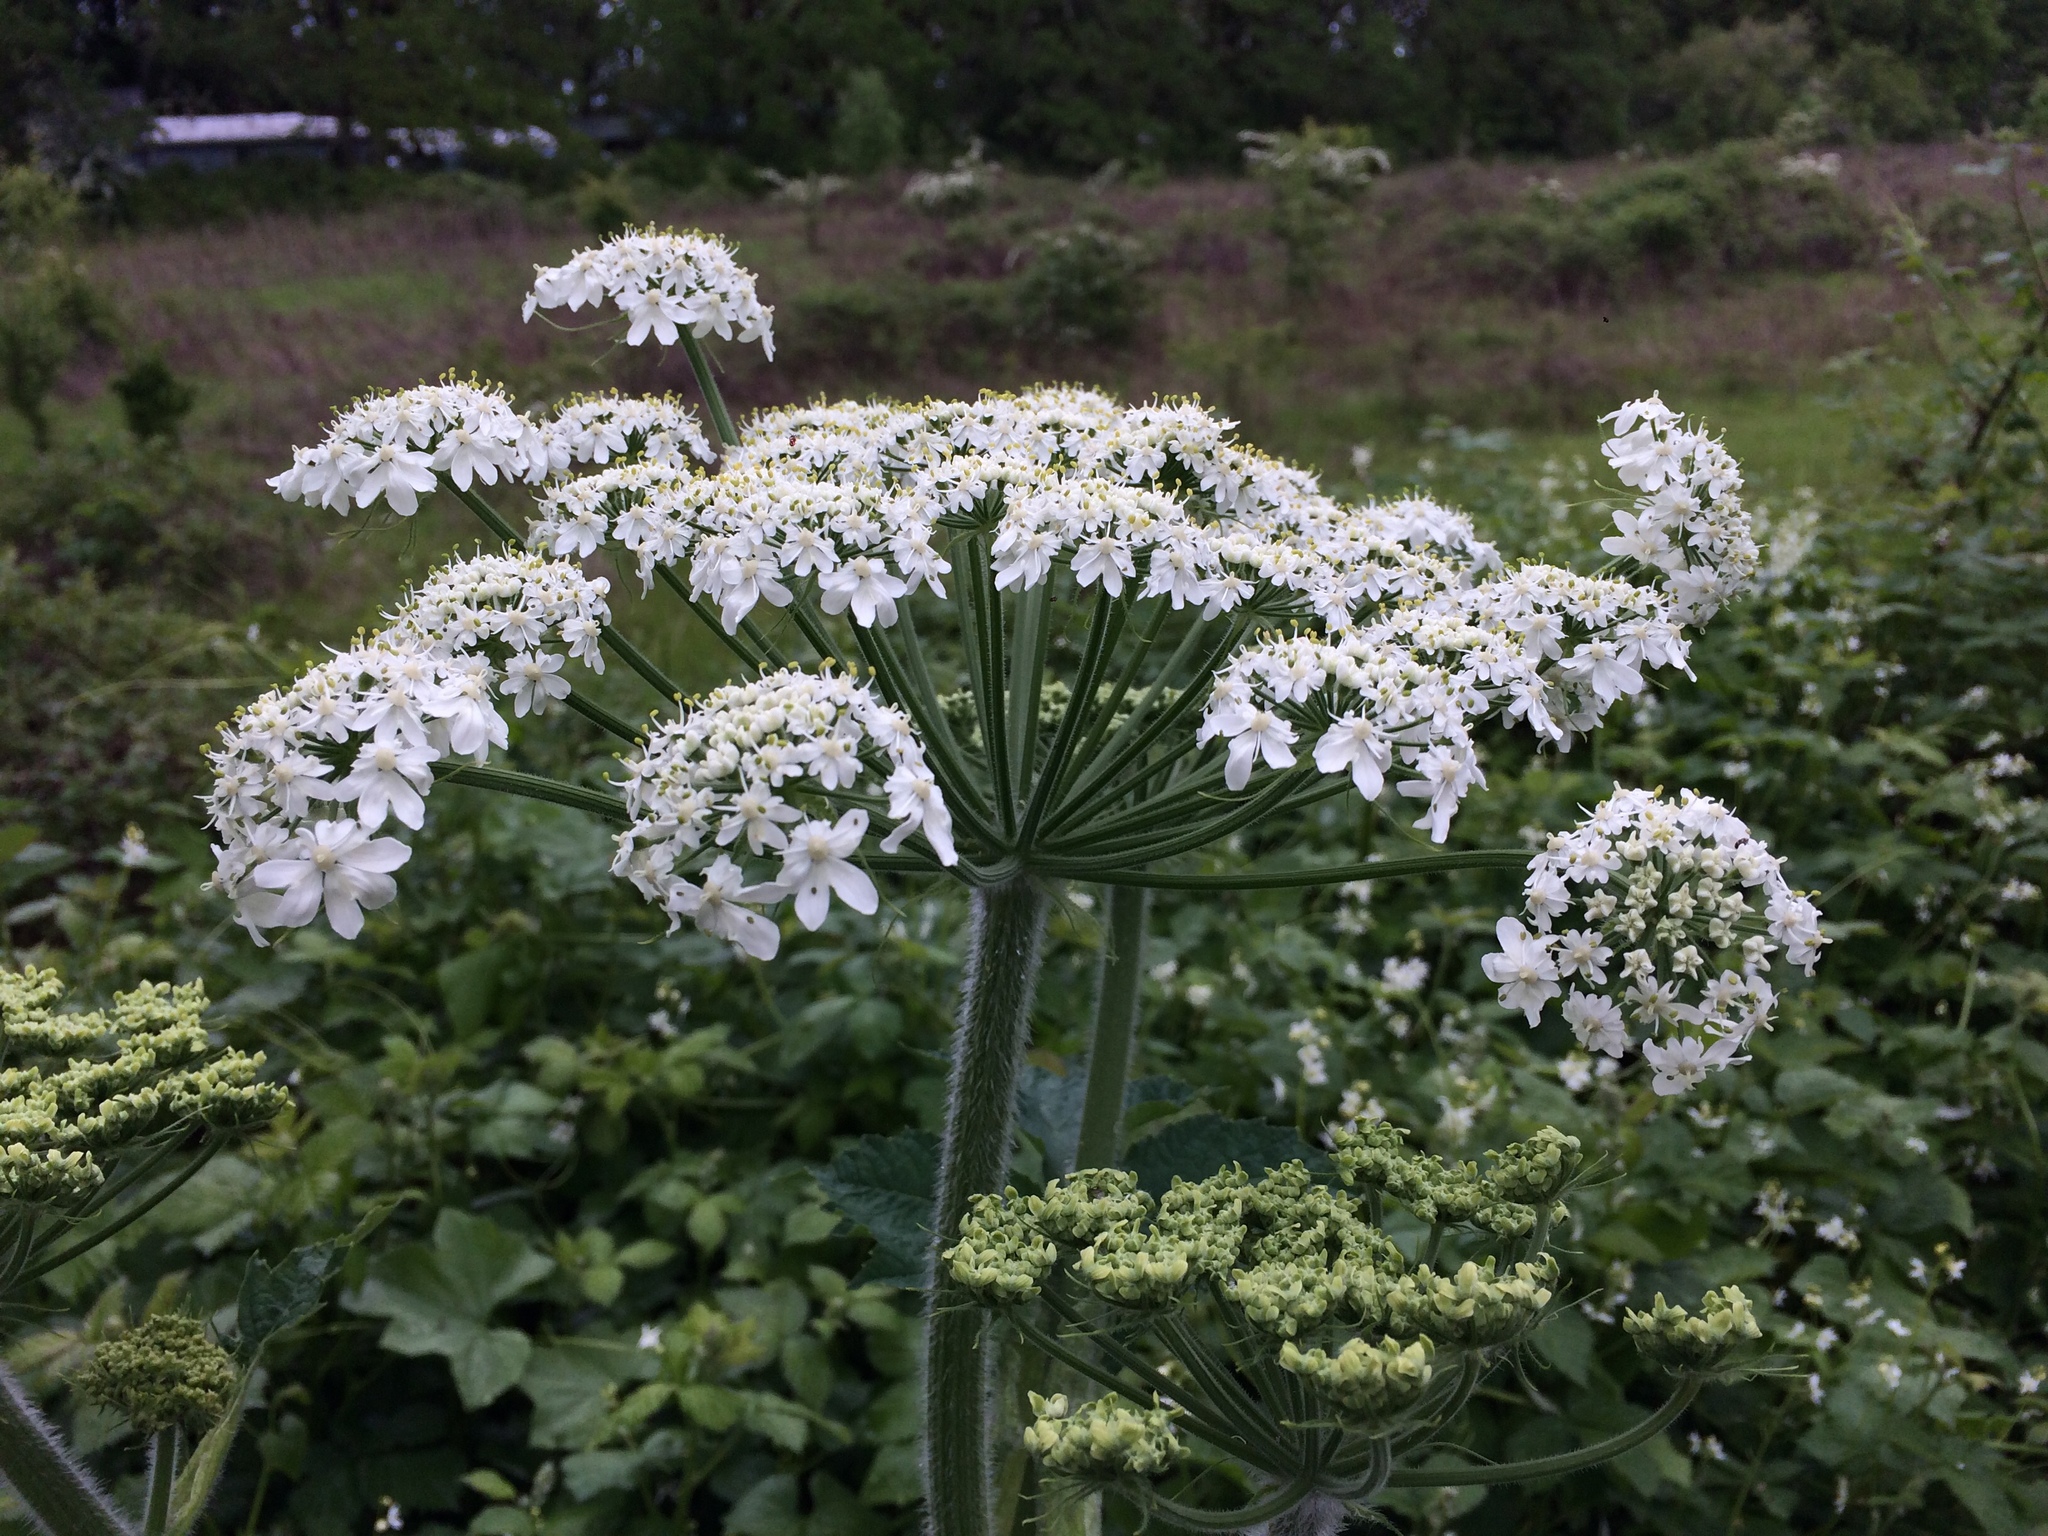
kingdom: Plantae
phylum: Tracheophyta
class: Magnoliopsida
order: Apiales
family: Apiaceae
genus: Heracleum
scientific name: Heracleum maximum
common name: American cow parsnip
